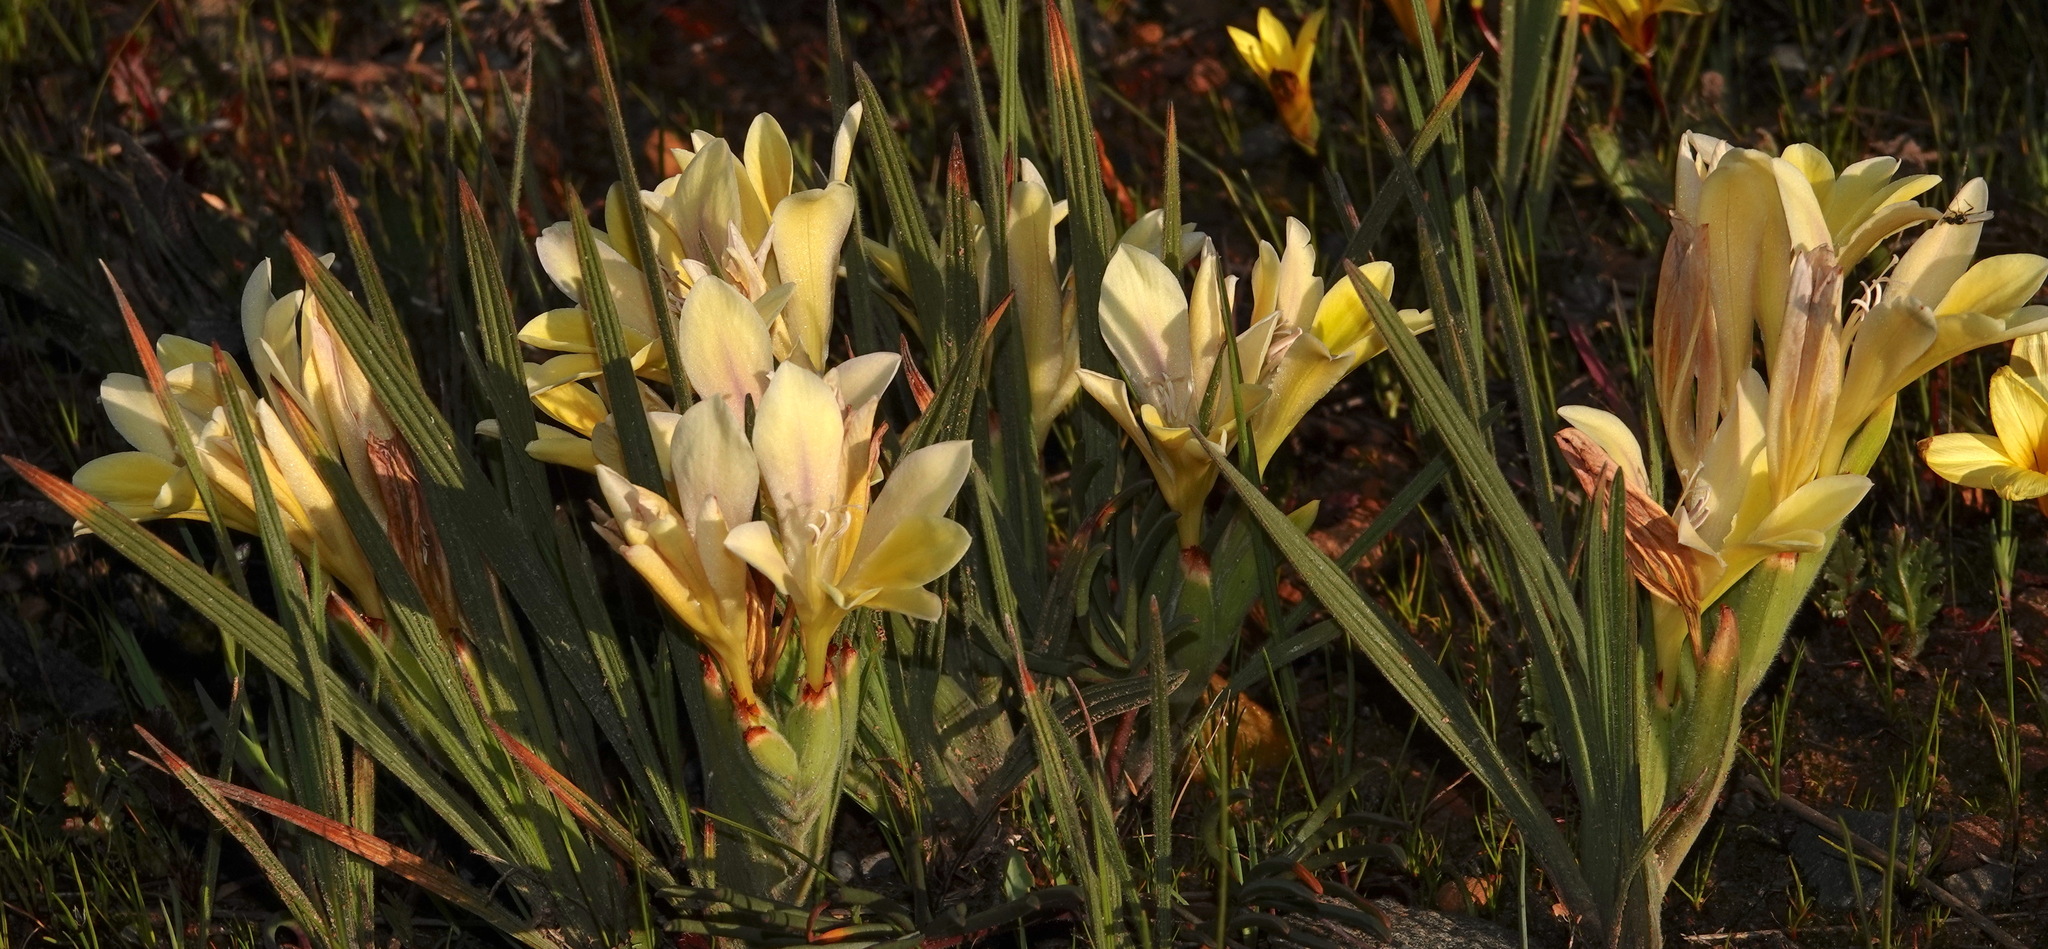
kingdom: Plantae
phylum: Tracheophyta
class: Liliopsida
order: Asparagales
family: Iridaceae
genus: Babiana
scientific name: Babiana vanzijliae
